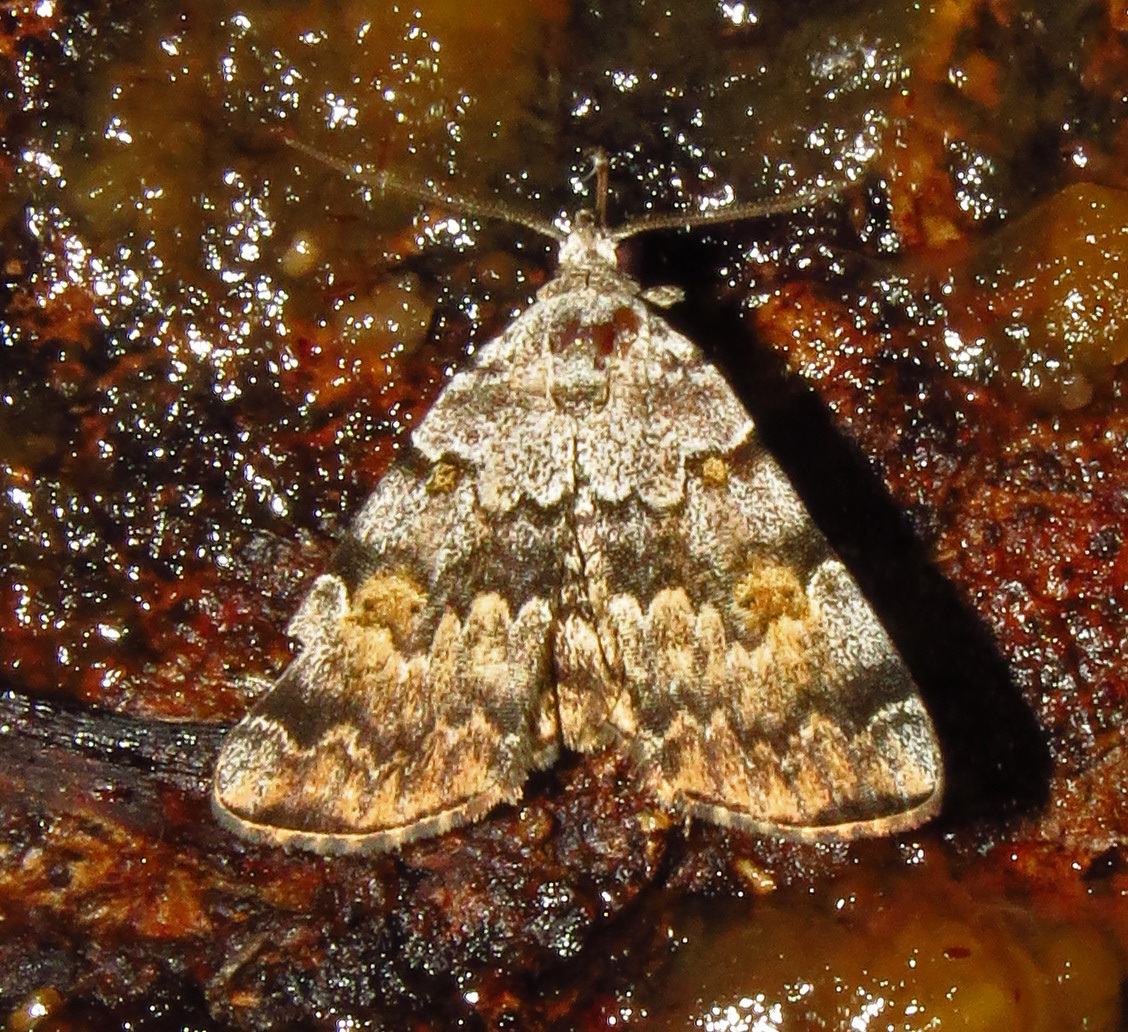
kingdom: Animalia
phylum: Arthropoda
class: Insecta
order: Lepidoptera
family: Erebidae
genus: Idia
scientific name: Idia americalis
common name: American idia moth
